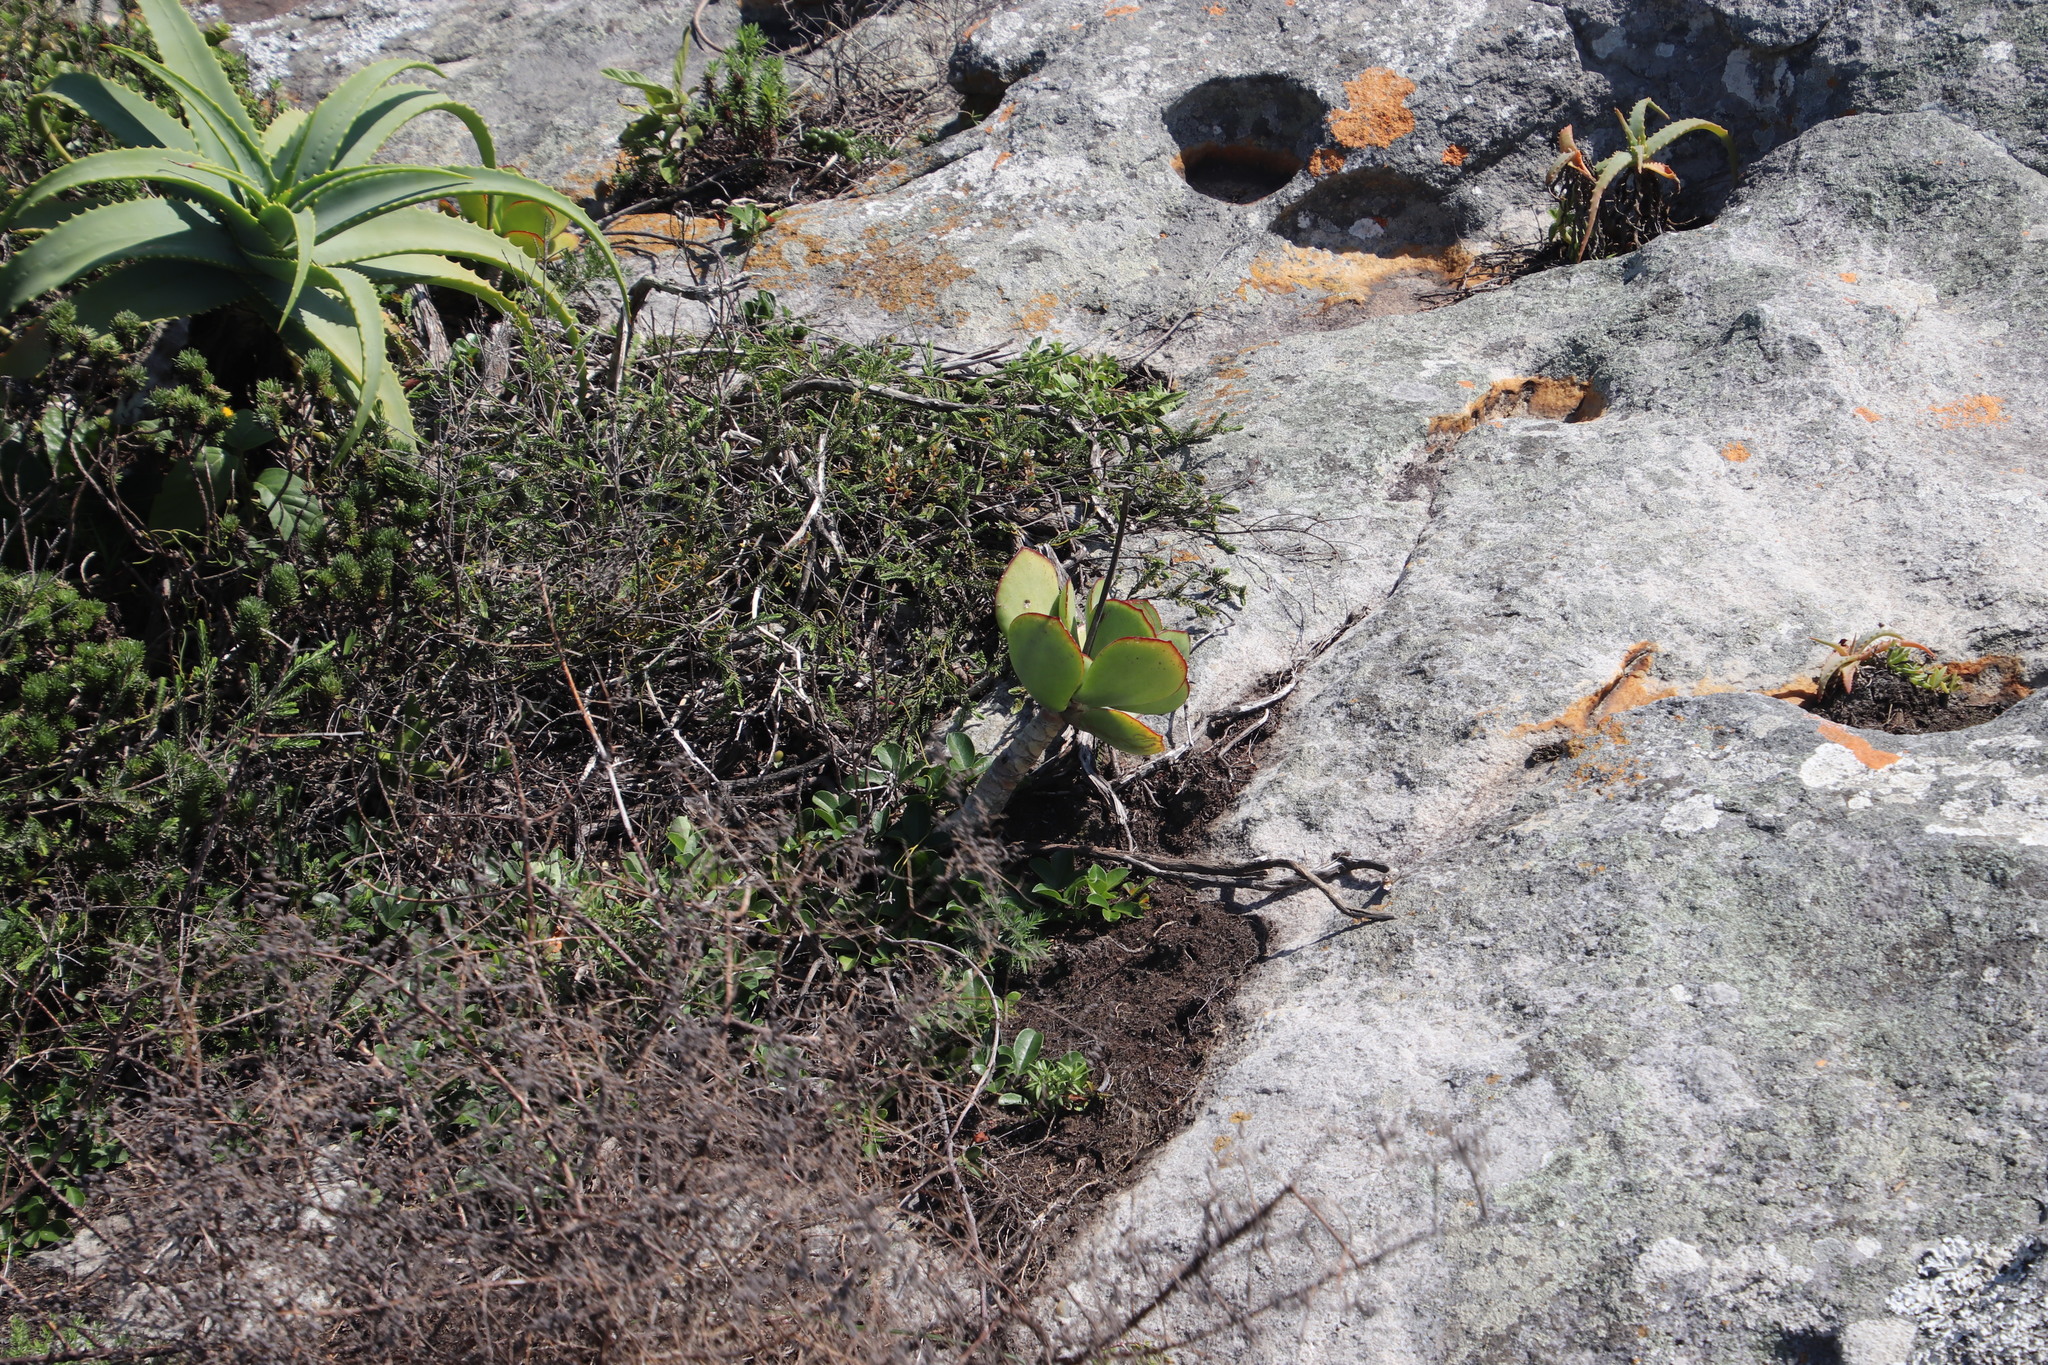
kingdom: Plantae
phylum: Tracheophyta
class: Magnoliopsida
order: Saxifragales
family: Crassulaceae
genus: Cotyledon
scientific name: Cotyledon orbiculata
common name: Pig's ear
